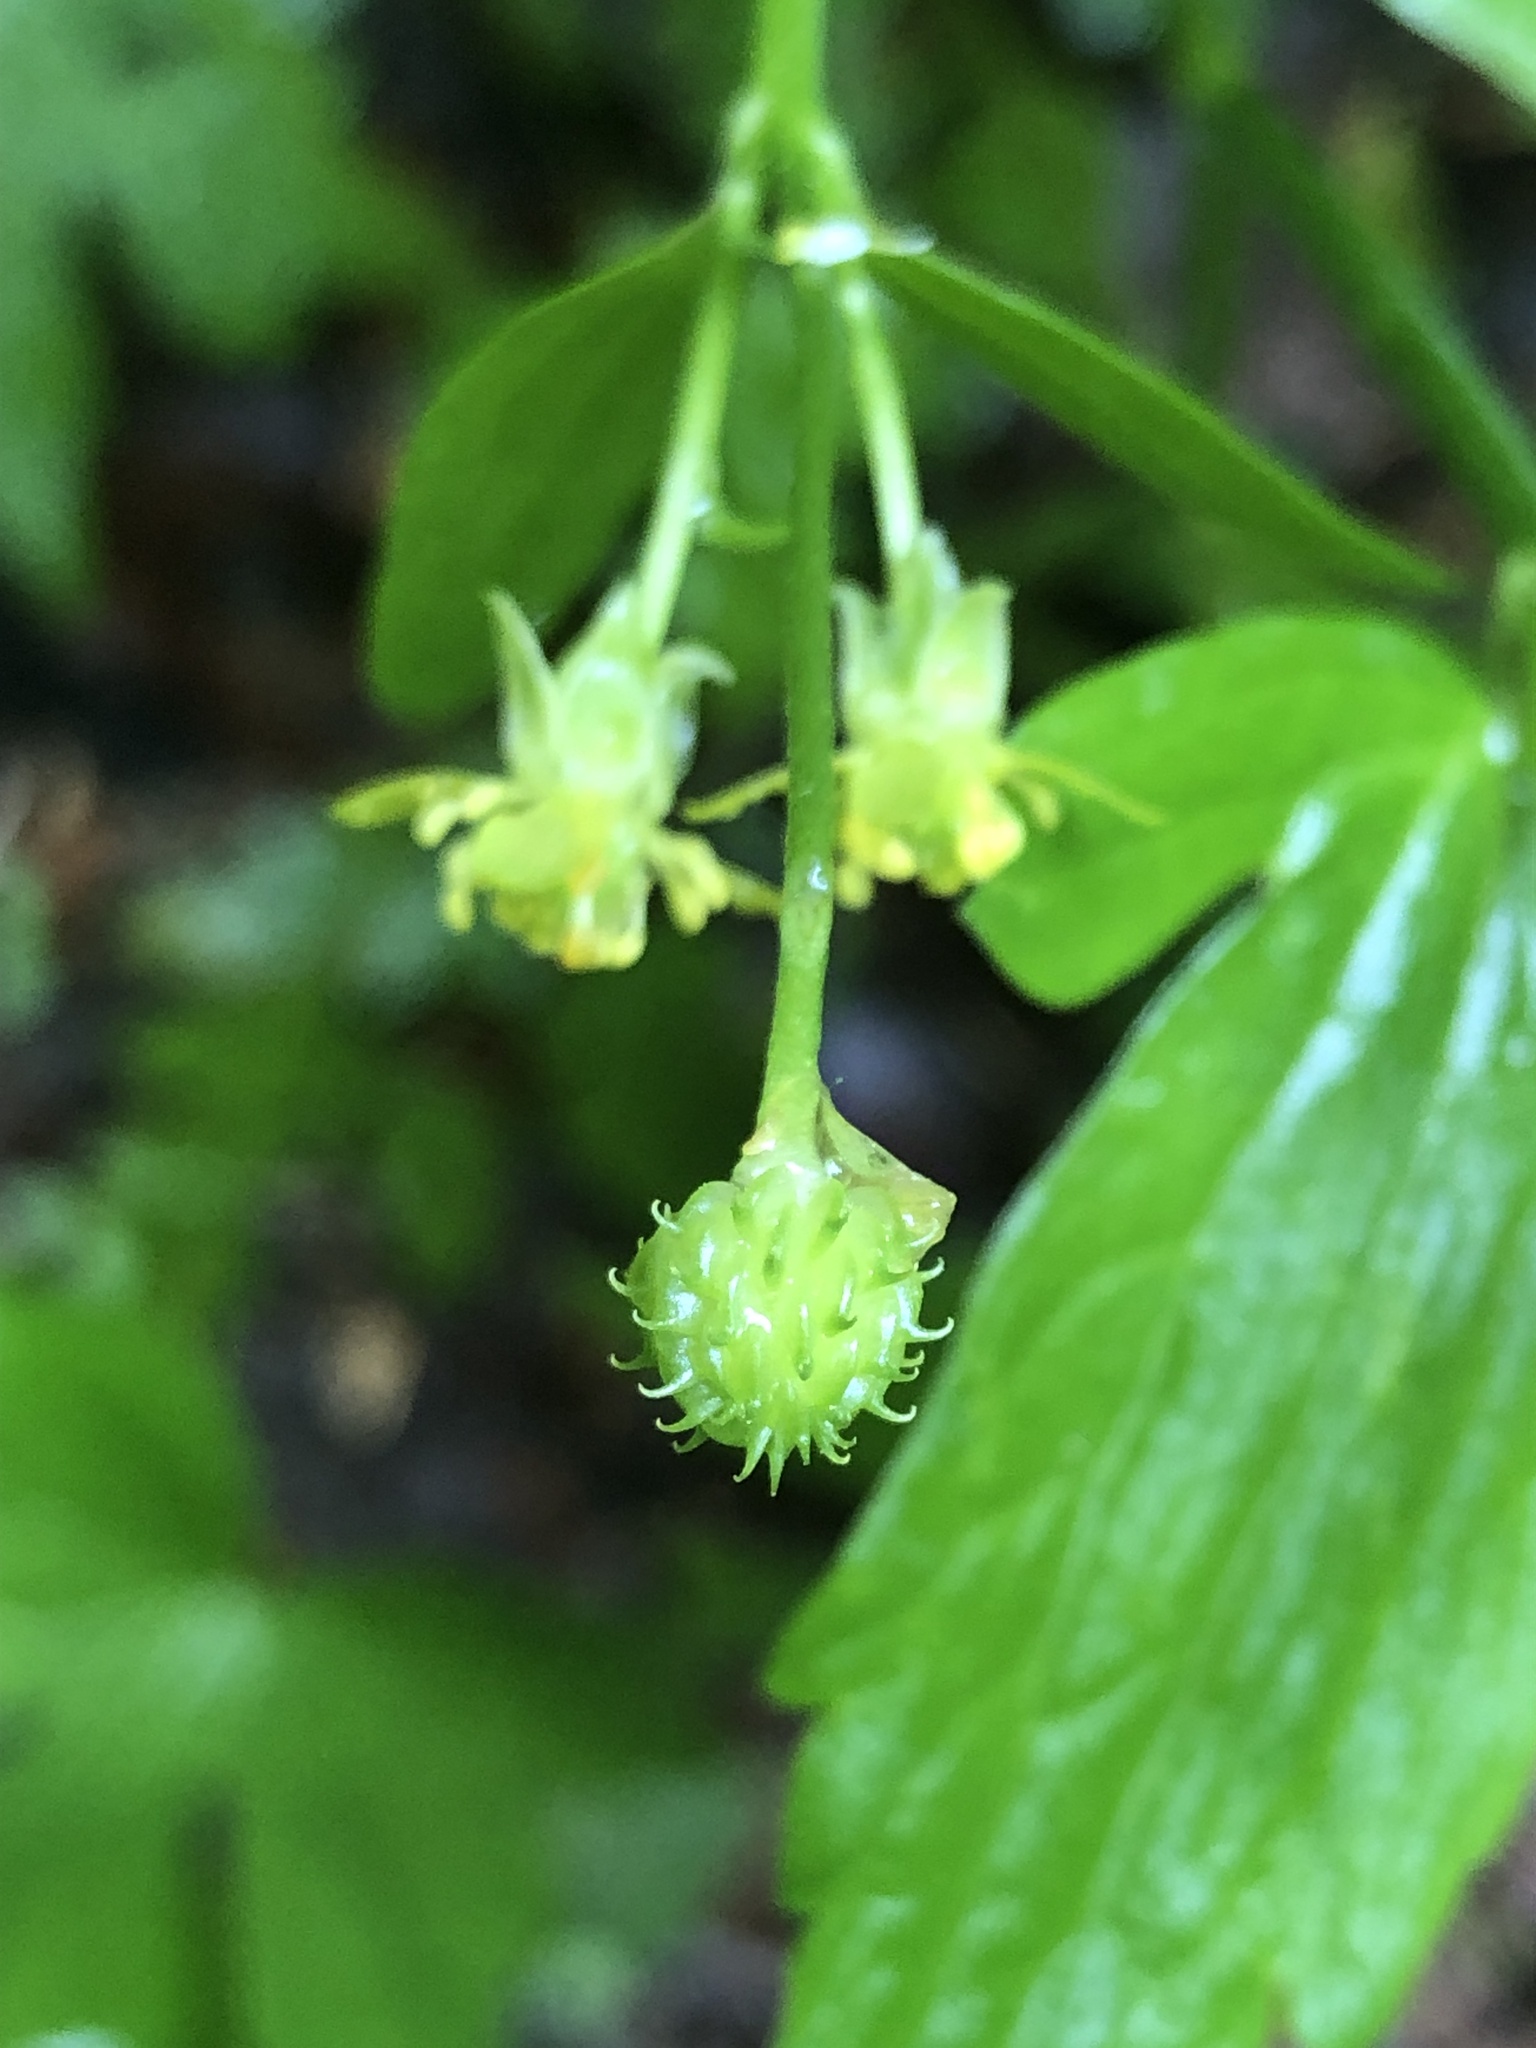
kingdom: Plantae
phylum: Tracheophyta
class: Magnoliopsida
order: Ranunculales
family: Ranunculaceae
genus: Ranunculus
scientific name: Ranunculus recurvatus
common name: Blisterwort
